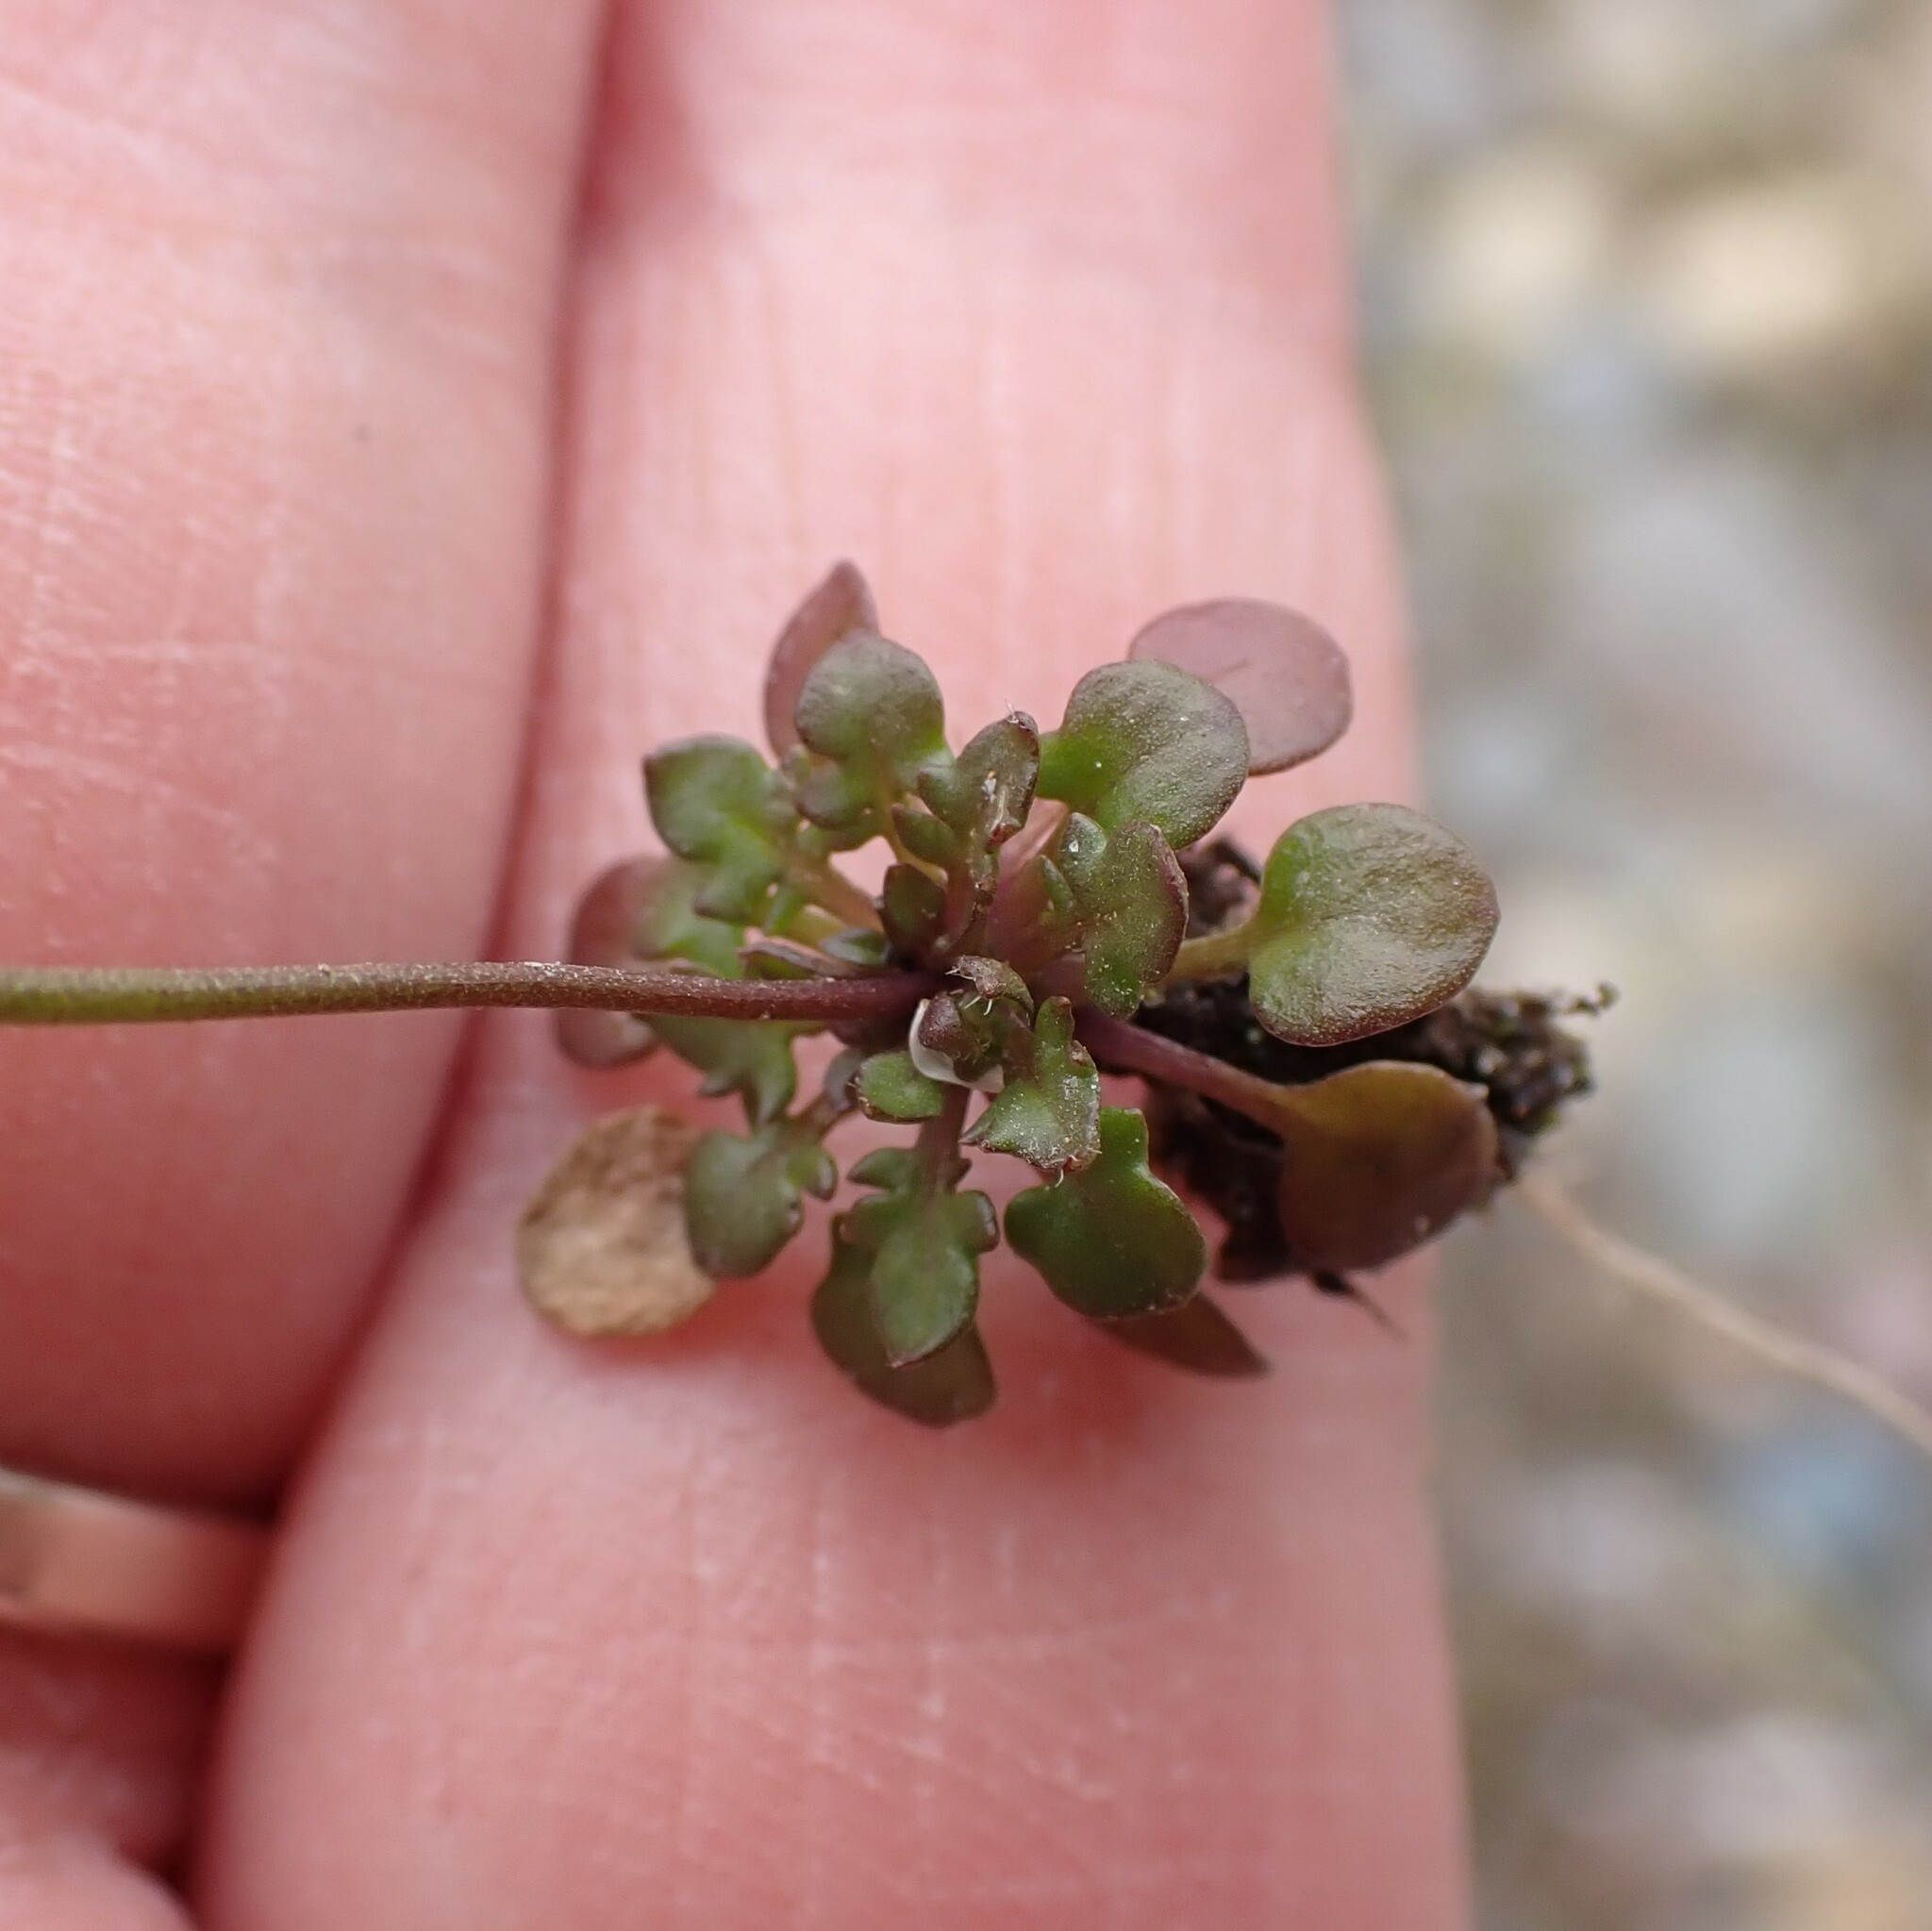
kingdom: Plantae
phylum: Tracheophyta
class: Magnoliopsida
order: Brassicales
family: Brassicaceae
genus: Teesdalia
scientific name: Teesdalia nudicaulis
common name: Shepherd's cress
